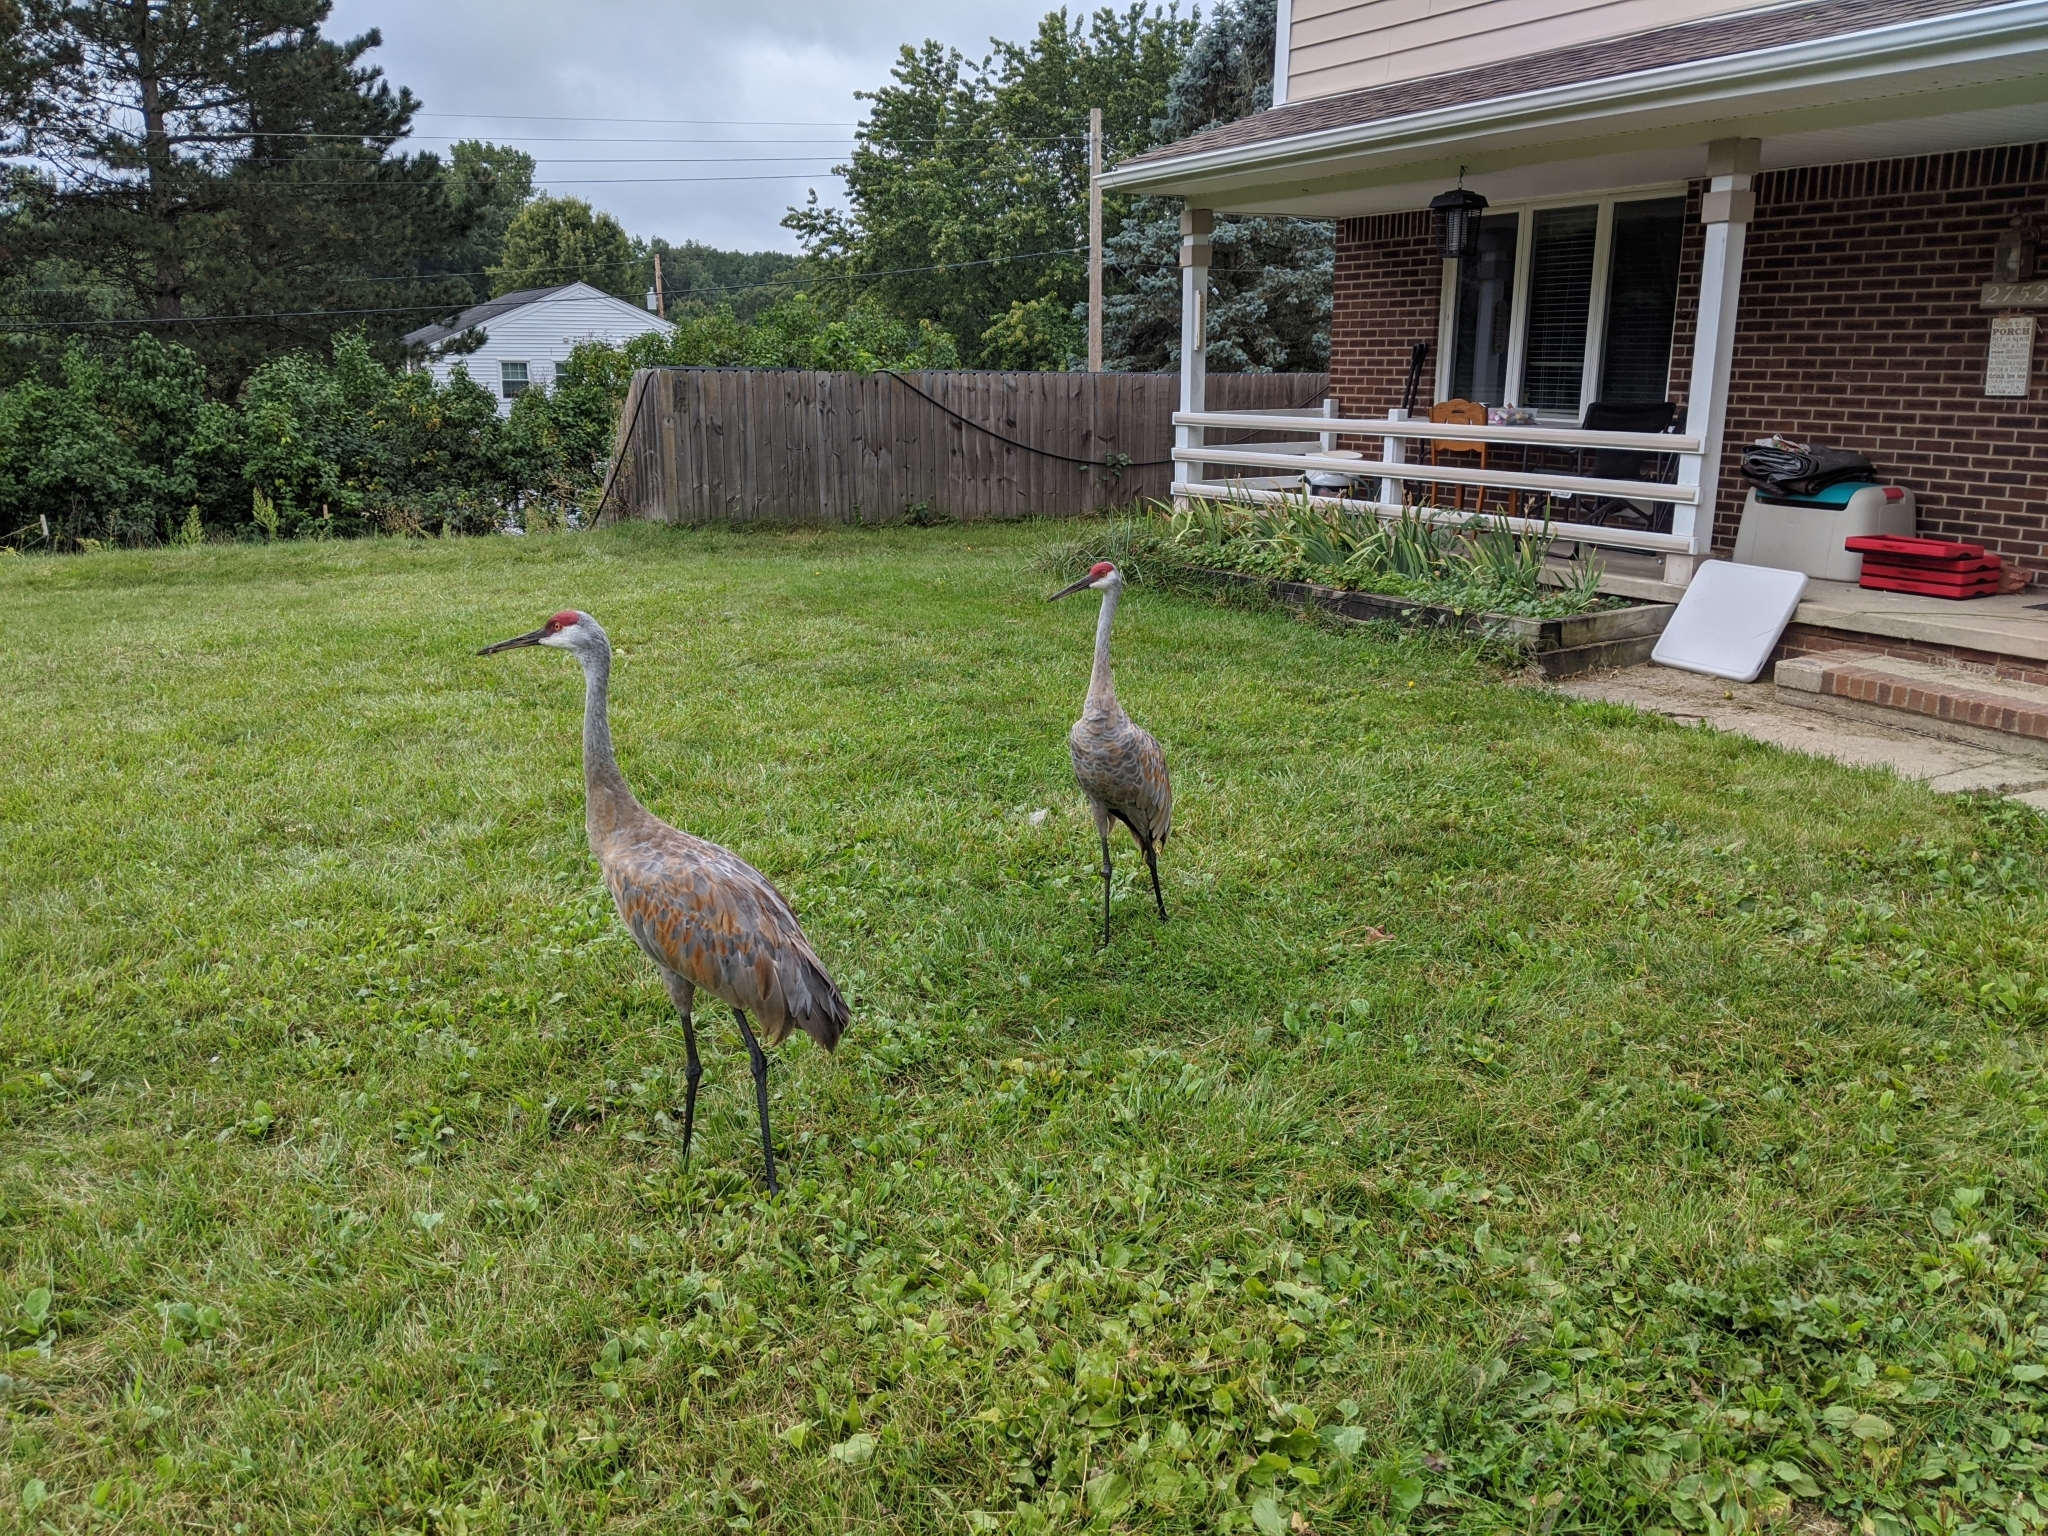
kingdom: Animalia
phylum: Chordata
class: Aves
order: Gruiformes
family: Gruidae
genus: Grus
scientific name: Grus canadensis
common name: Sandhill crane
